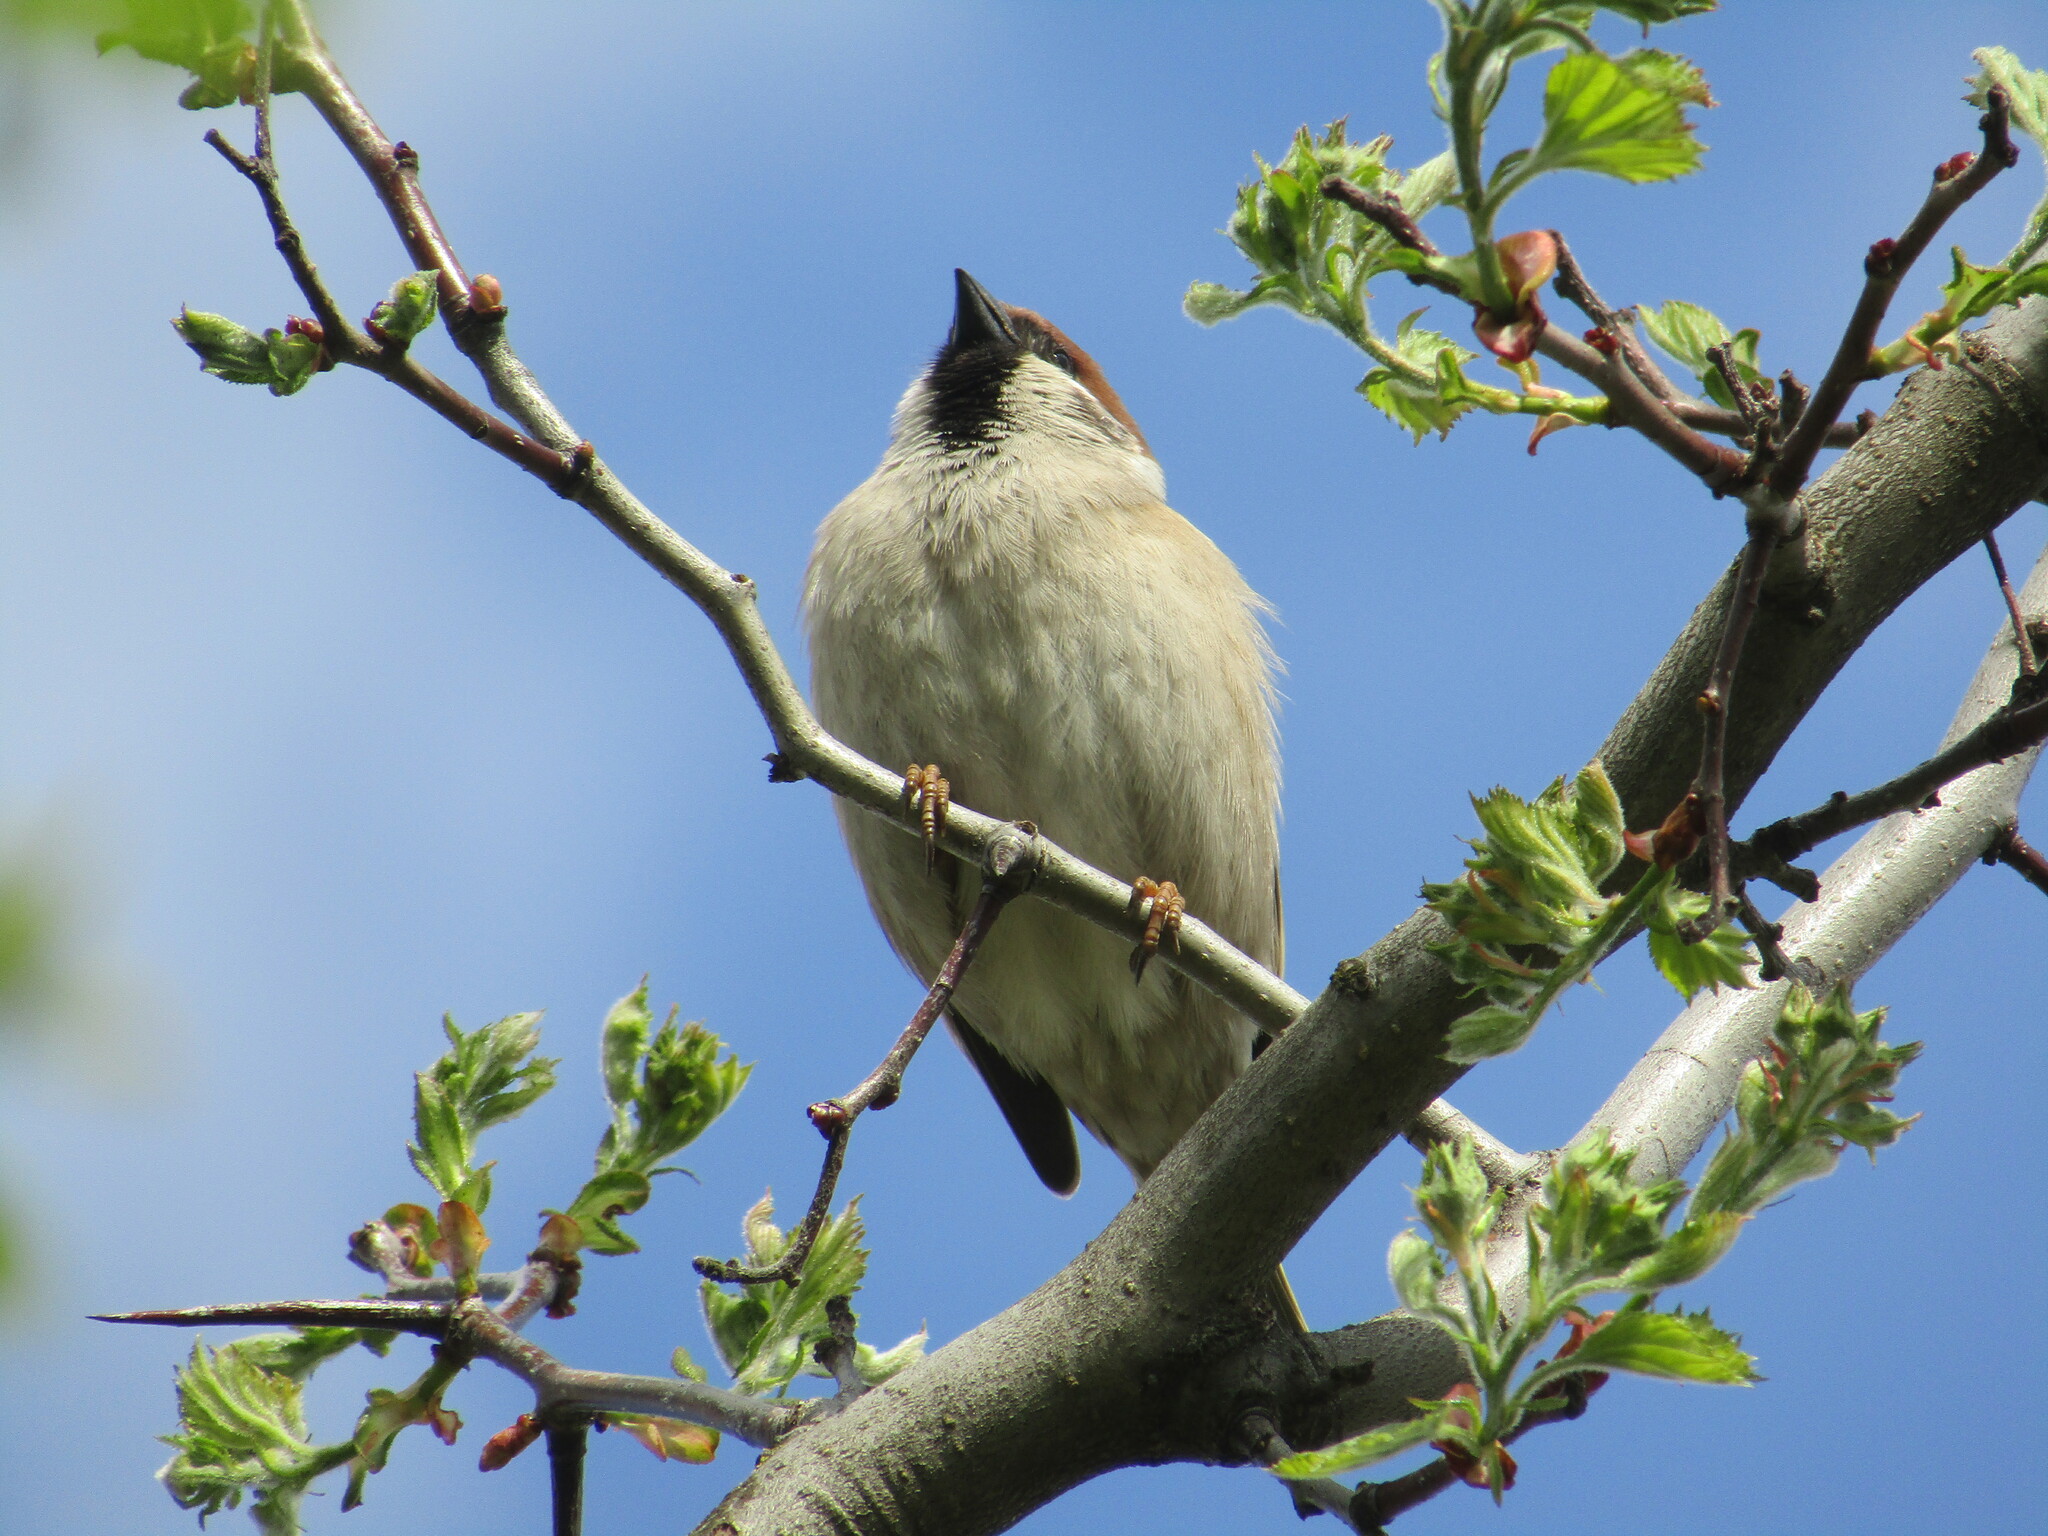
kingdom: Animalia
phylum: Chordata
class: Aves
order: Passeriformes
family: Passeridae
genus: Passer
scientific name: Passer montanus
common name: Eurasian tree sparrow
